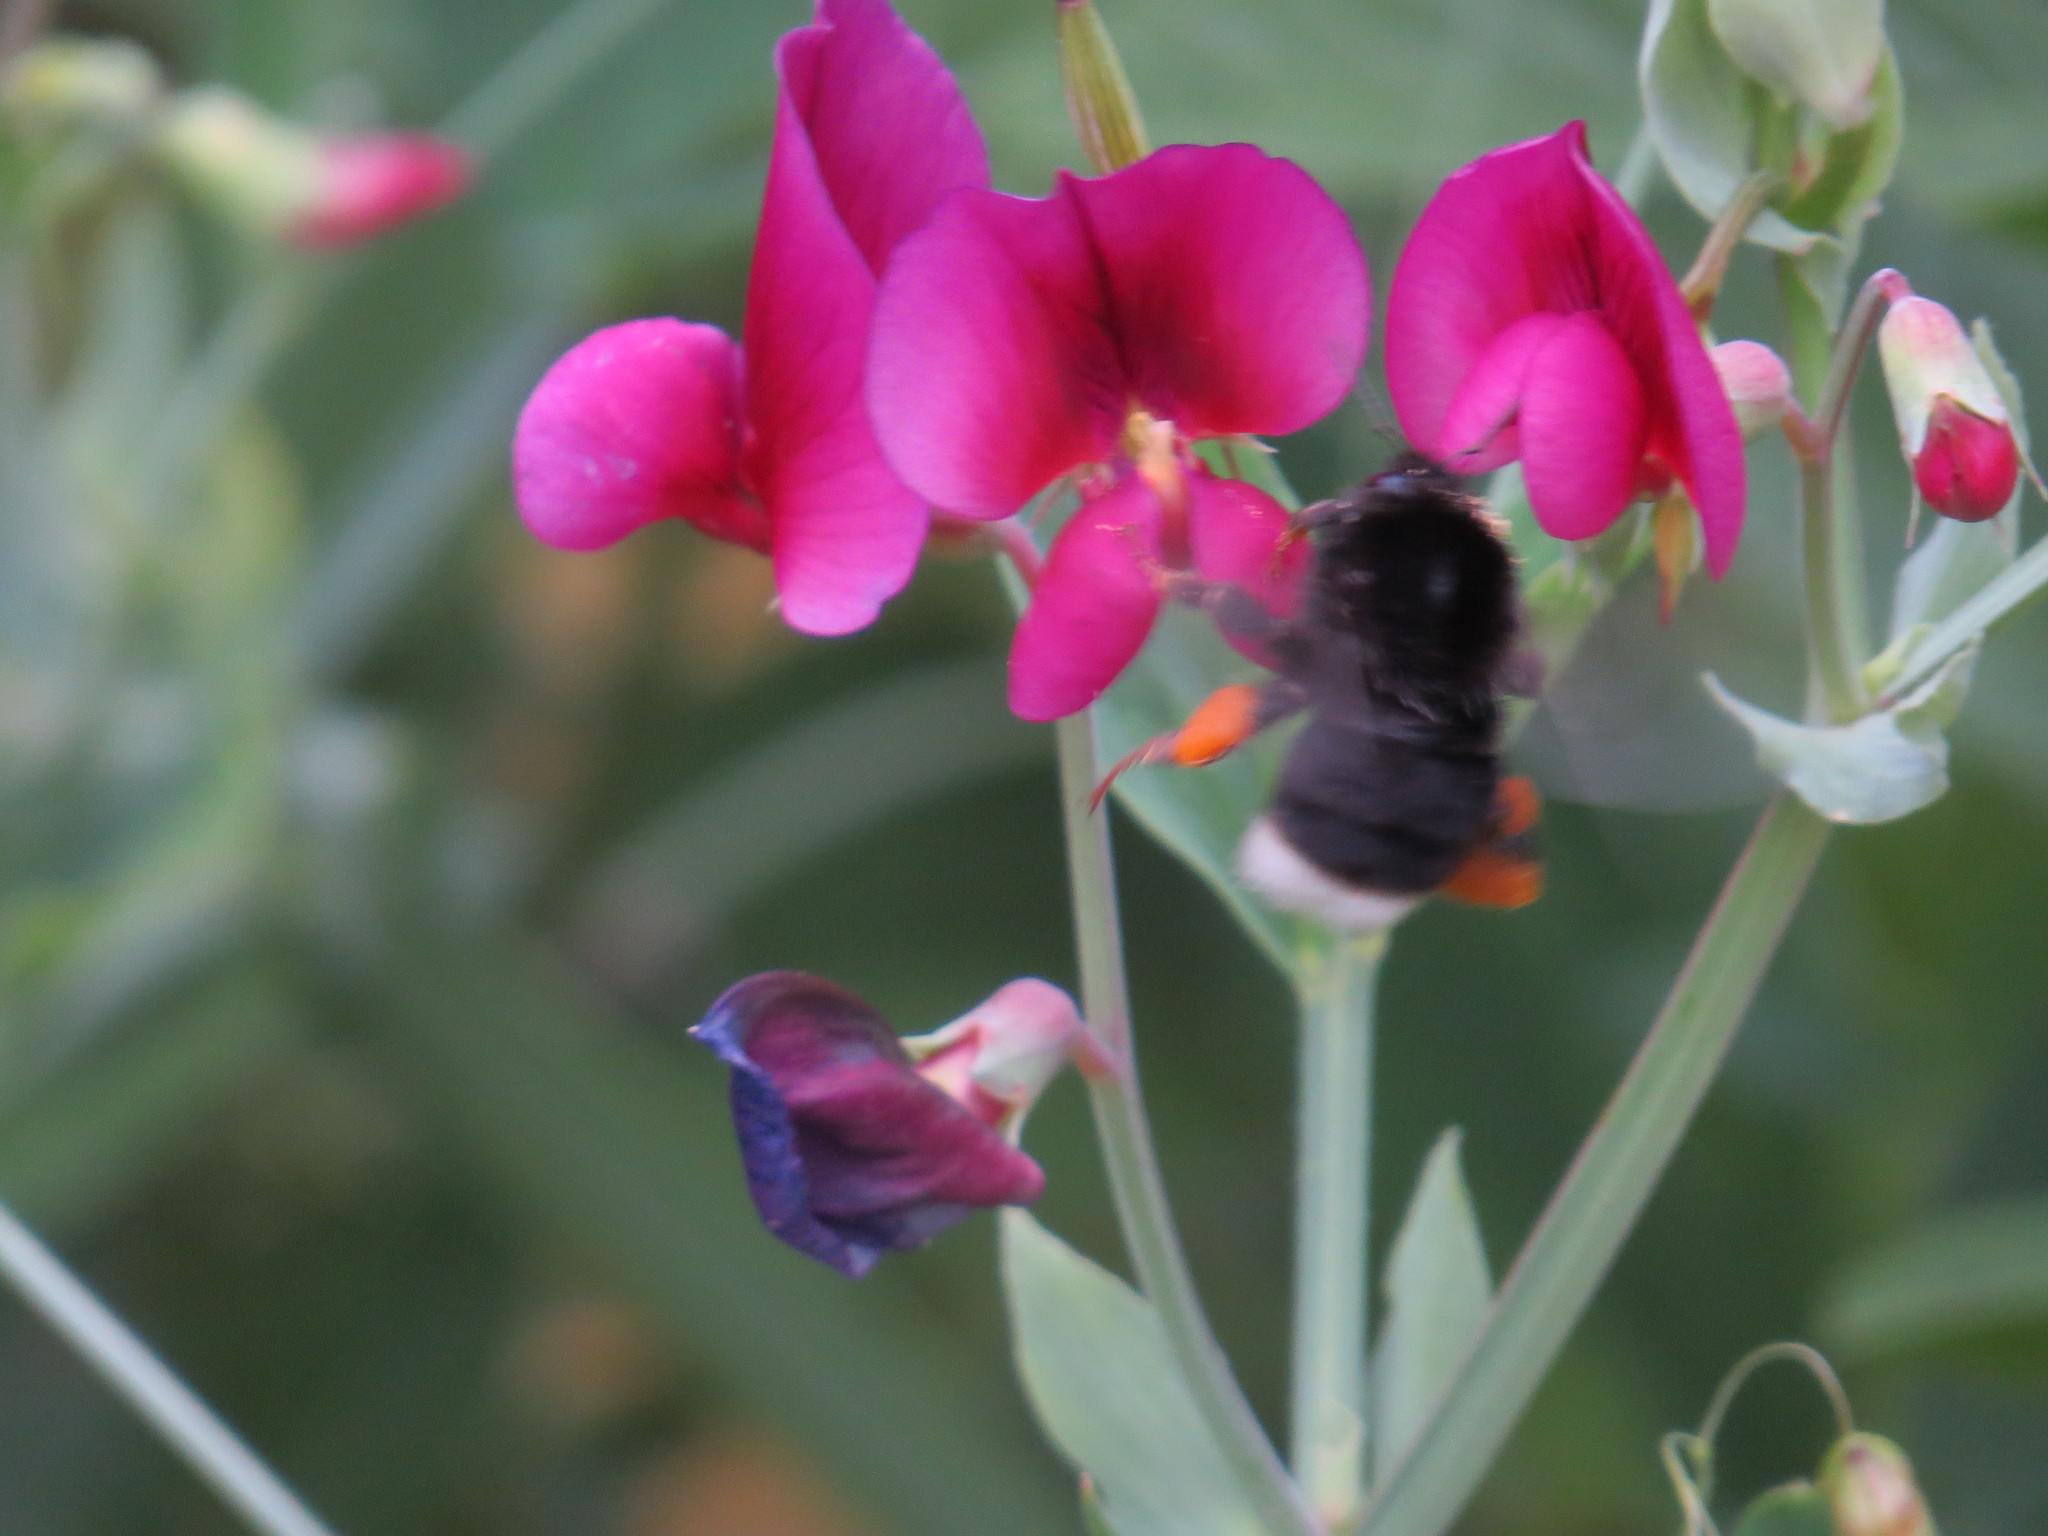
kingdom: Animalia
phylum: Arthropoda
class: Insecta
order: Hymenoptera
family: Apidae
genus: Bombus
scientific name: Bombus terrestris
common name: Buff-tailed bumblebee
